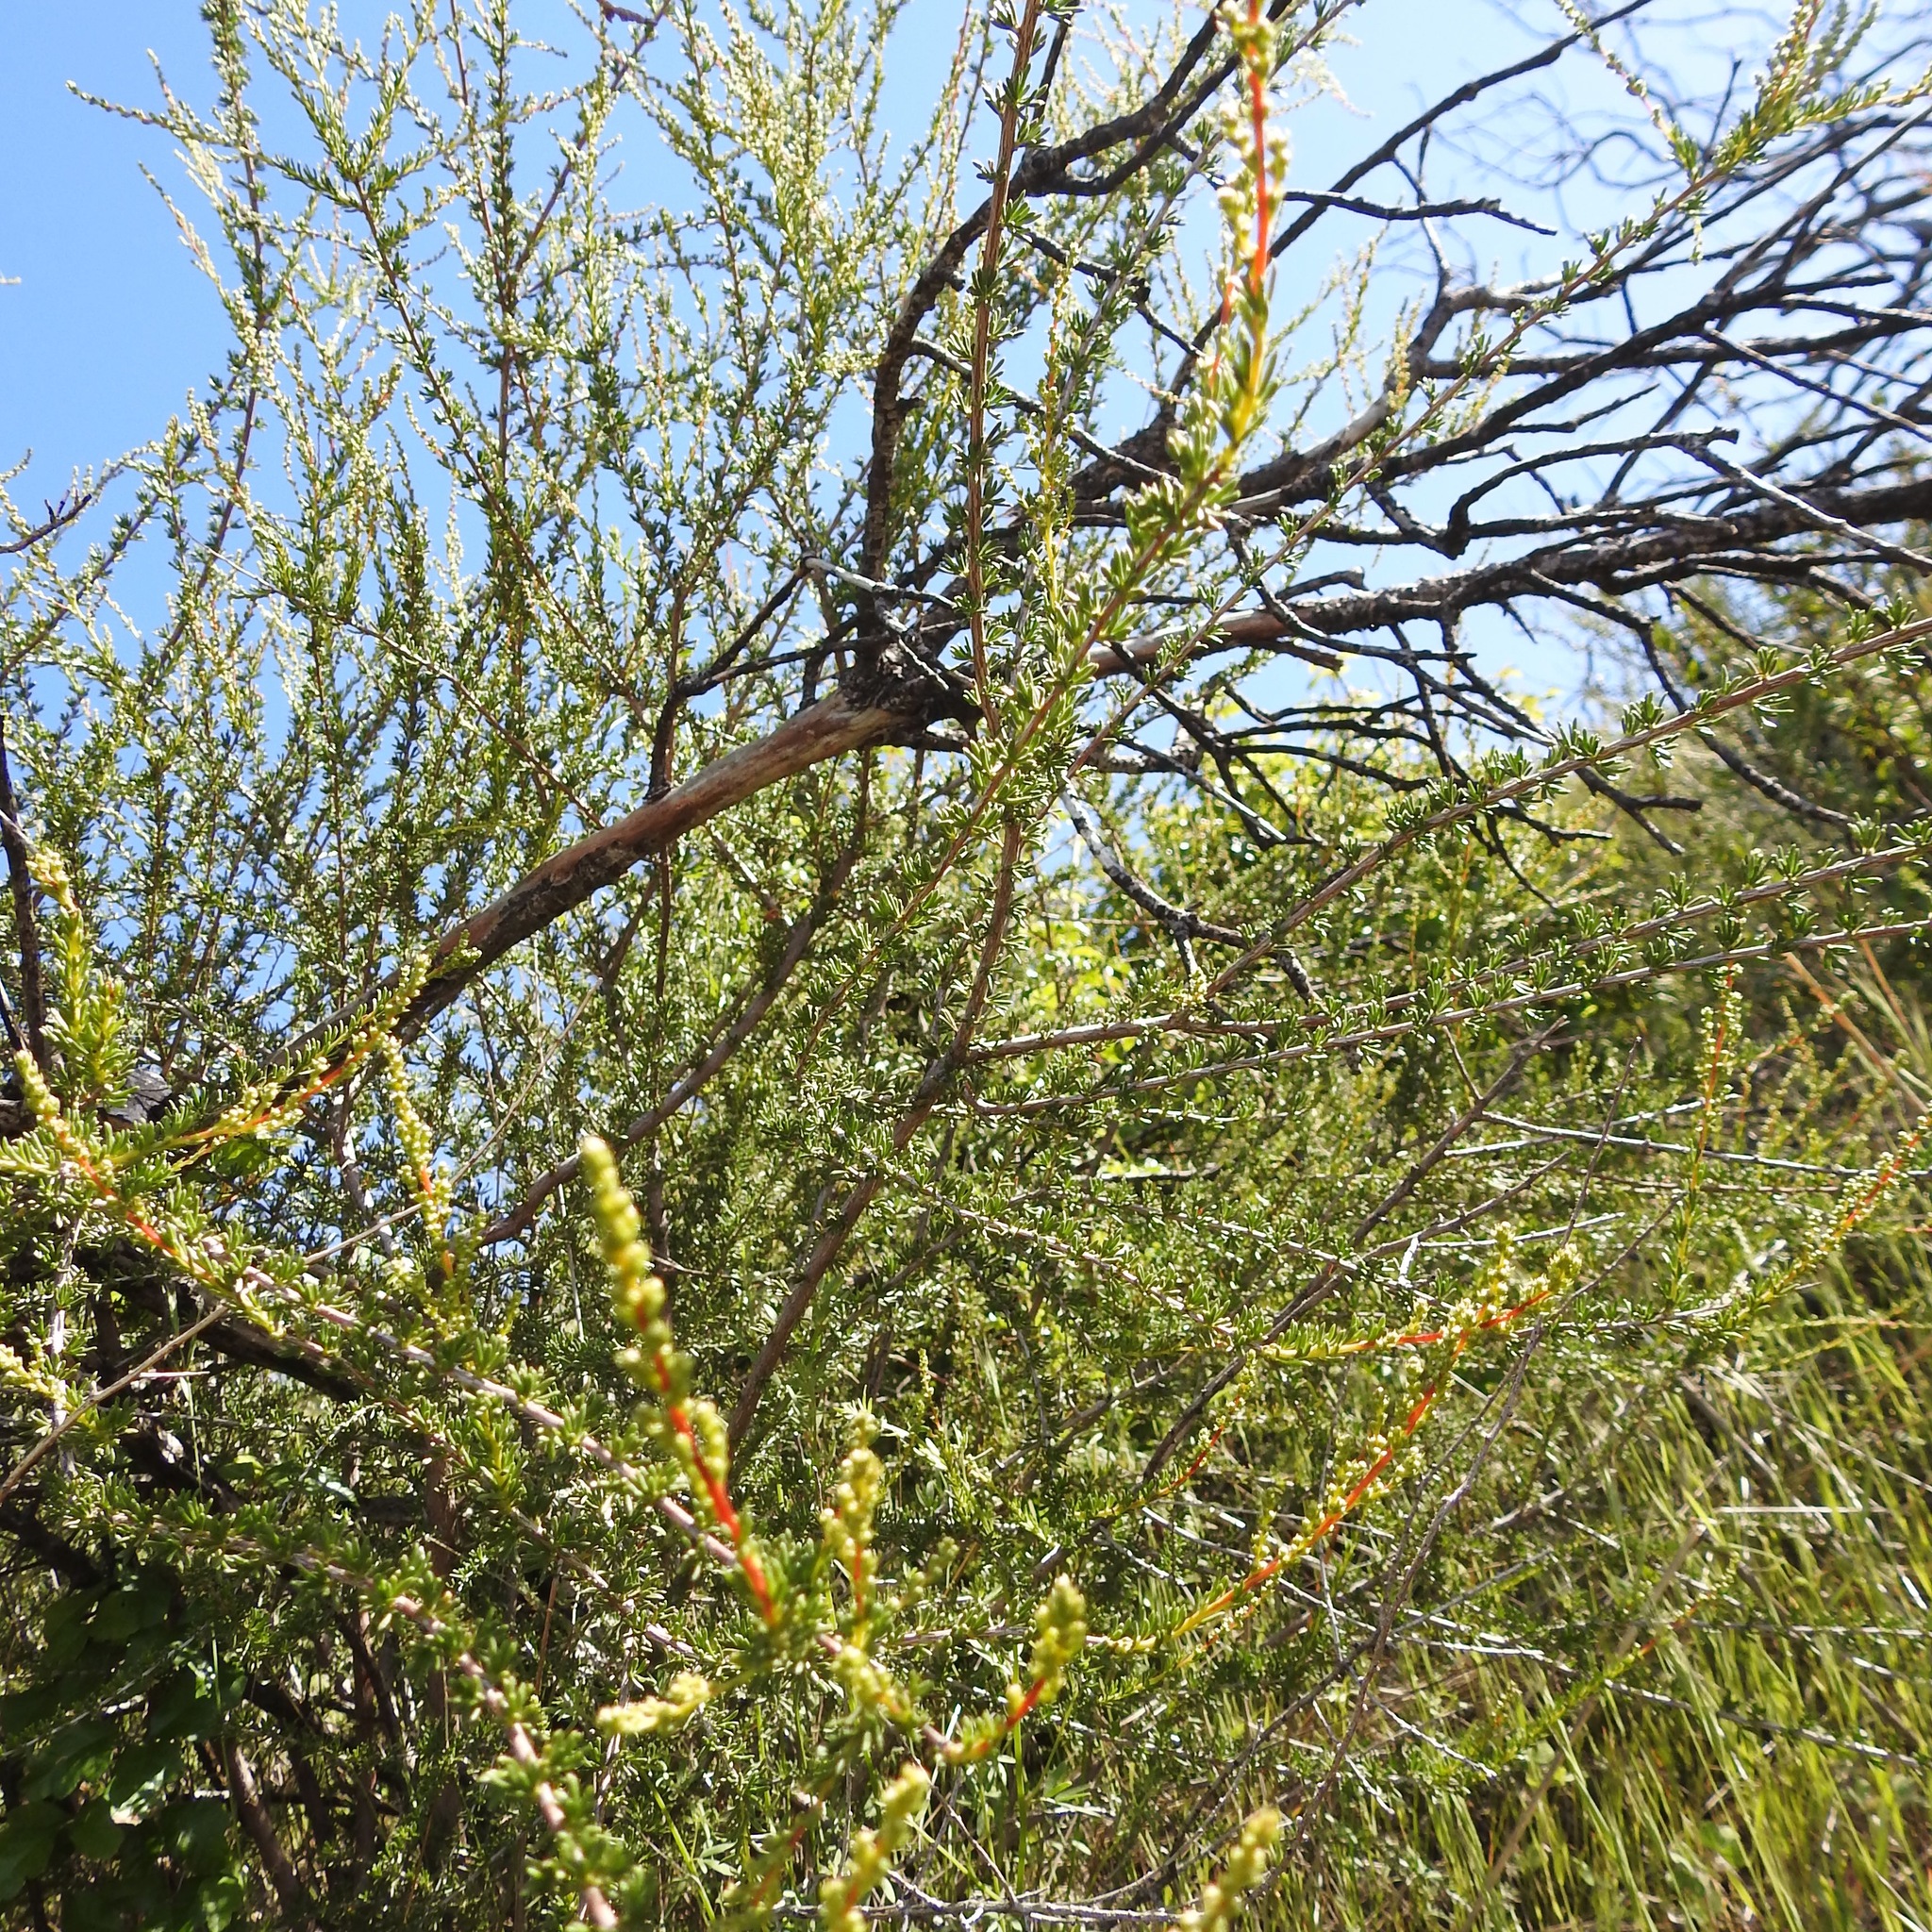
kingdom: Plantae
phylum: Tracheophyta
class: Magnoliopsida
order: Rosales
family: Rosaceae
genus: Adenostoma
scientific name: Adenostoma fasciculatum
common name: Chamise
